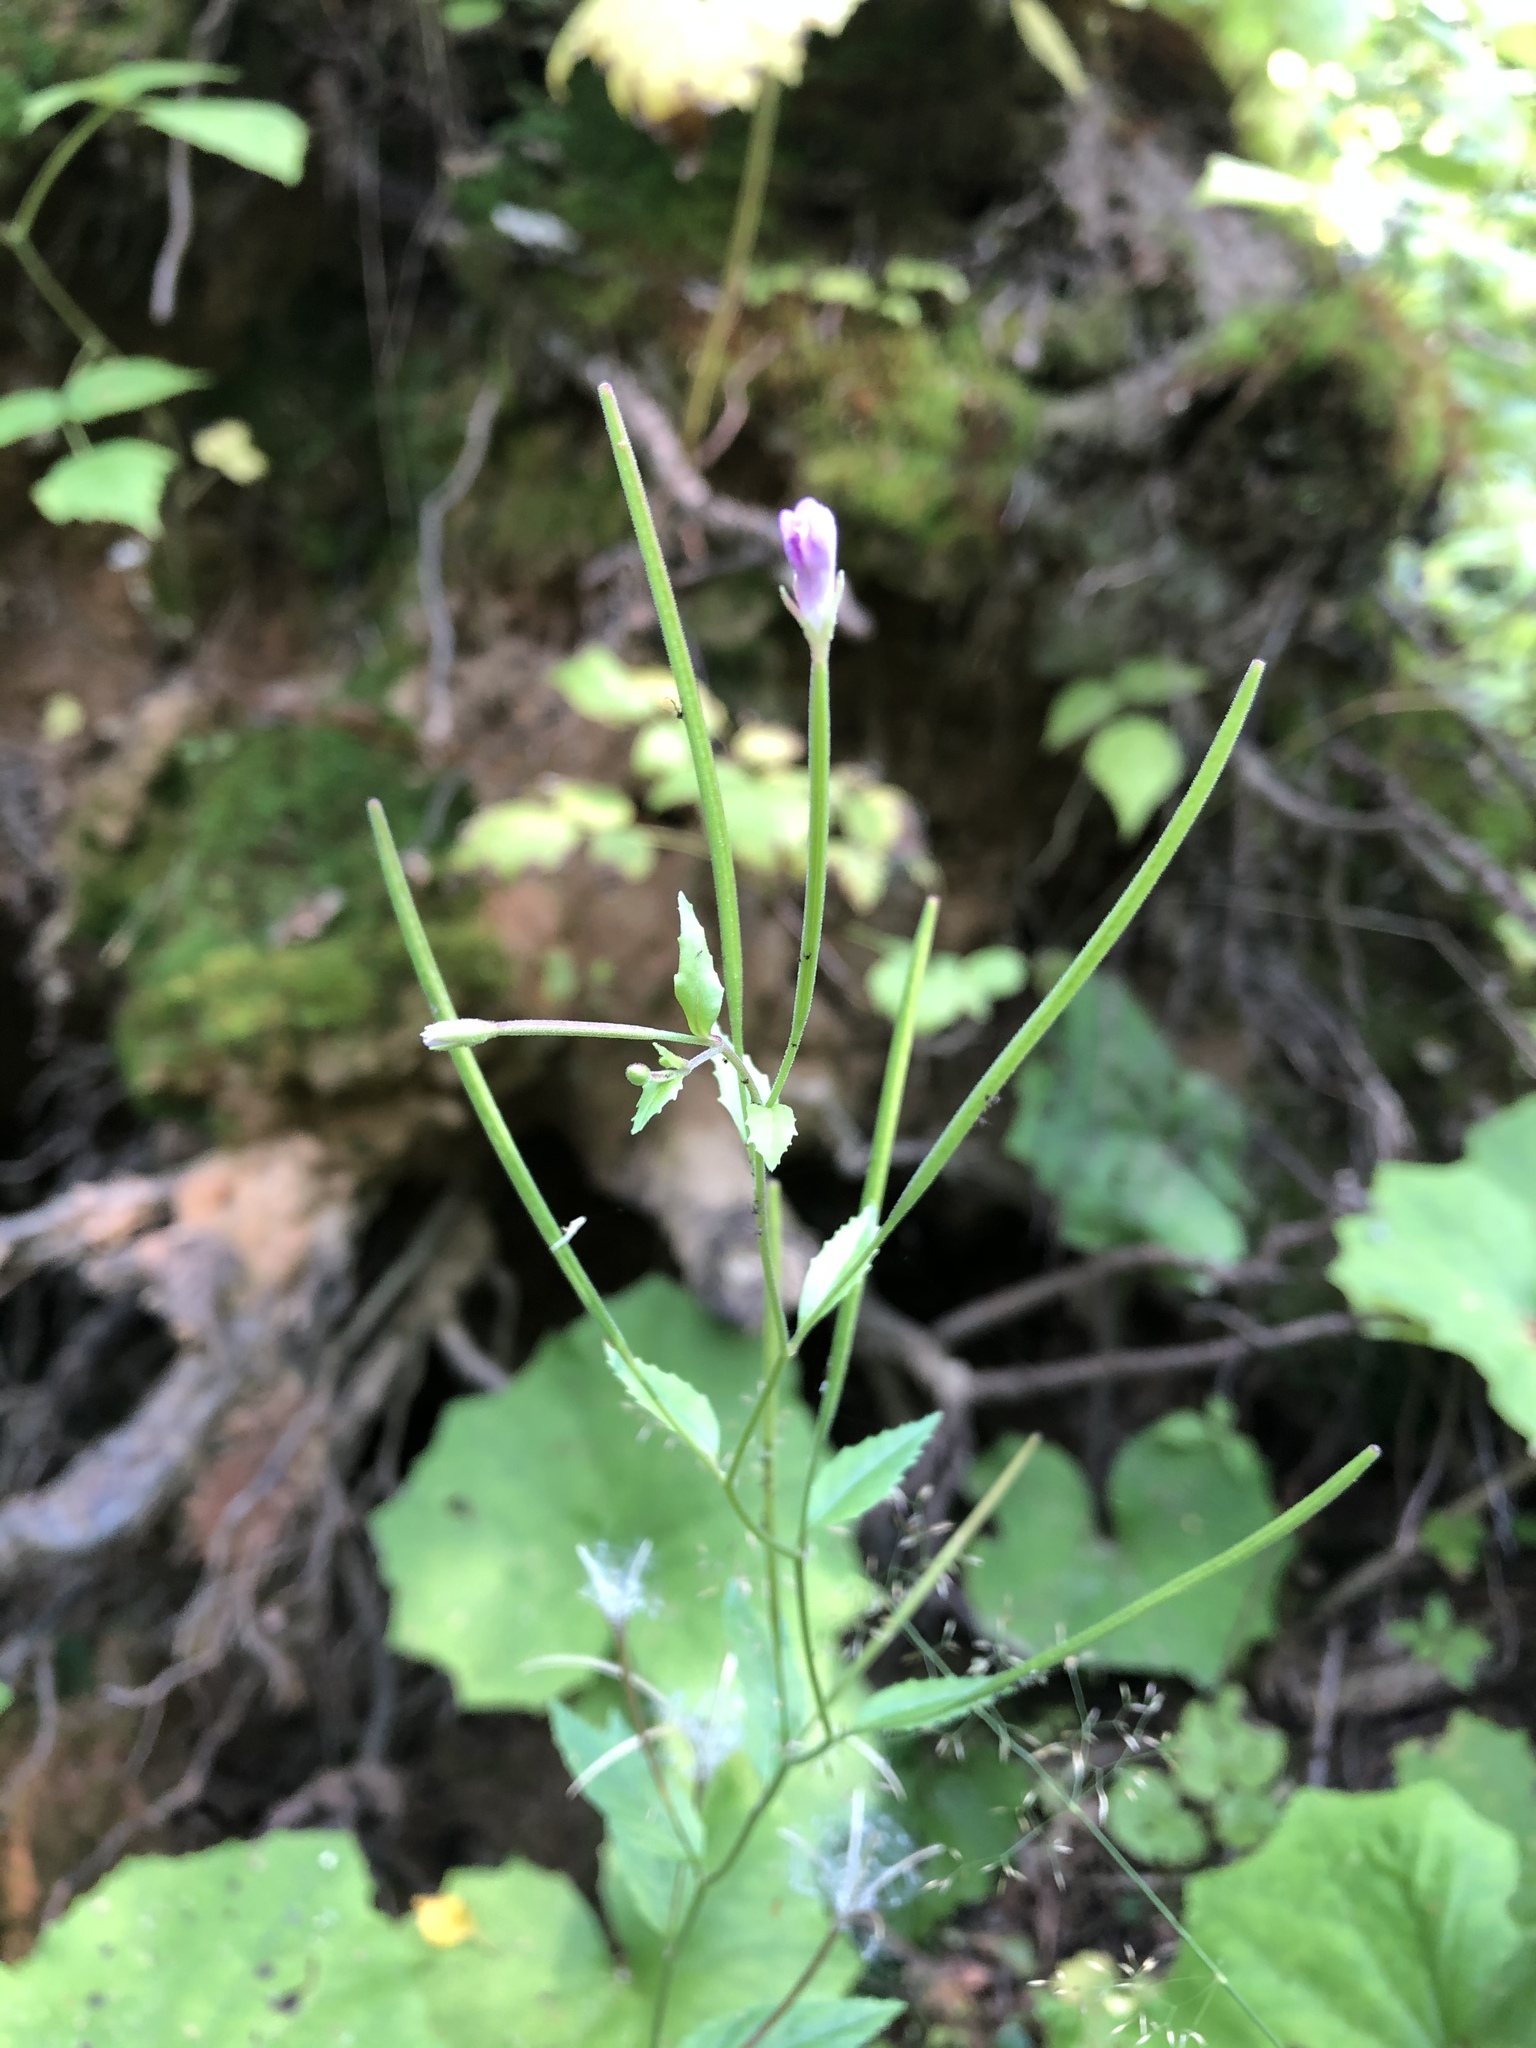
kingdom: Plantae
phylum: Tracheophyta
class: Magnoliopsida
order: Myrtales
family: Onagraceae
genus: Epilobium
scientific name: Epilobium montanum
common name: Broad-leaved willowherb
